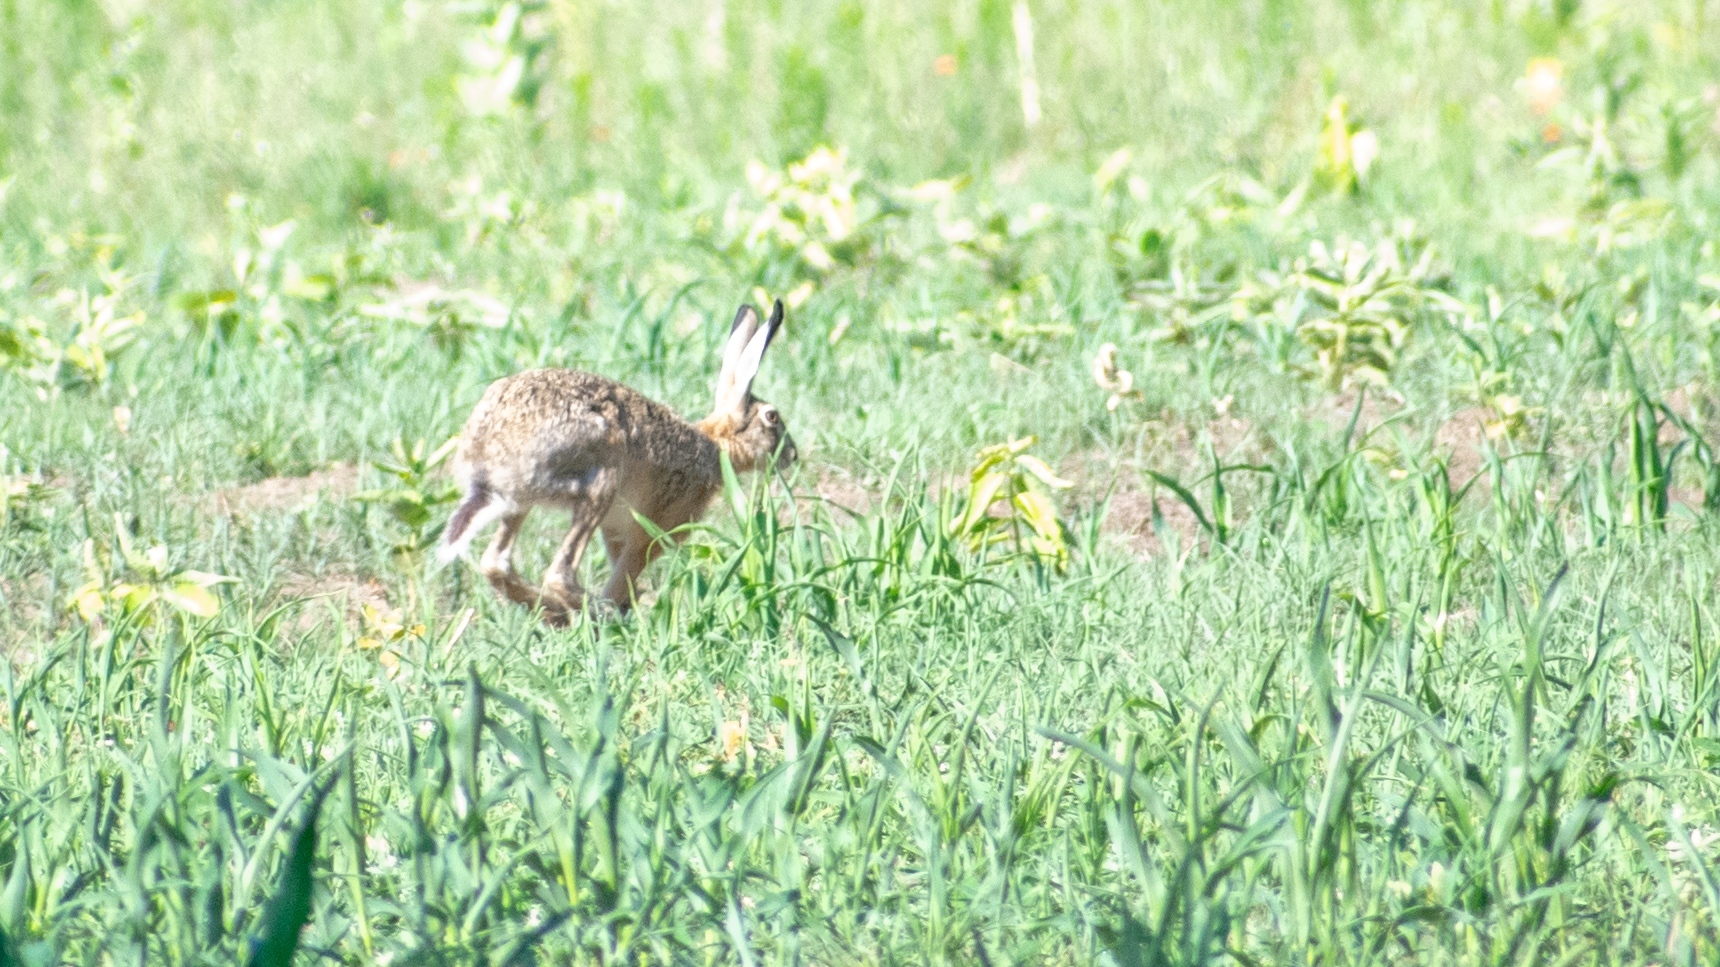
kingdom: Animalia
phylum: Chordata
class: Mammalia
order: Lagomorpha
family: Leporidae
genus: Lepus
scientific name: Lepus europaeus
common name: European hare
